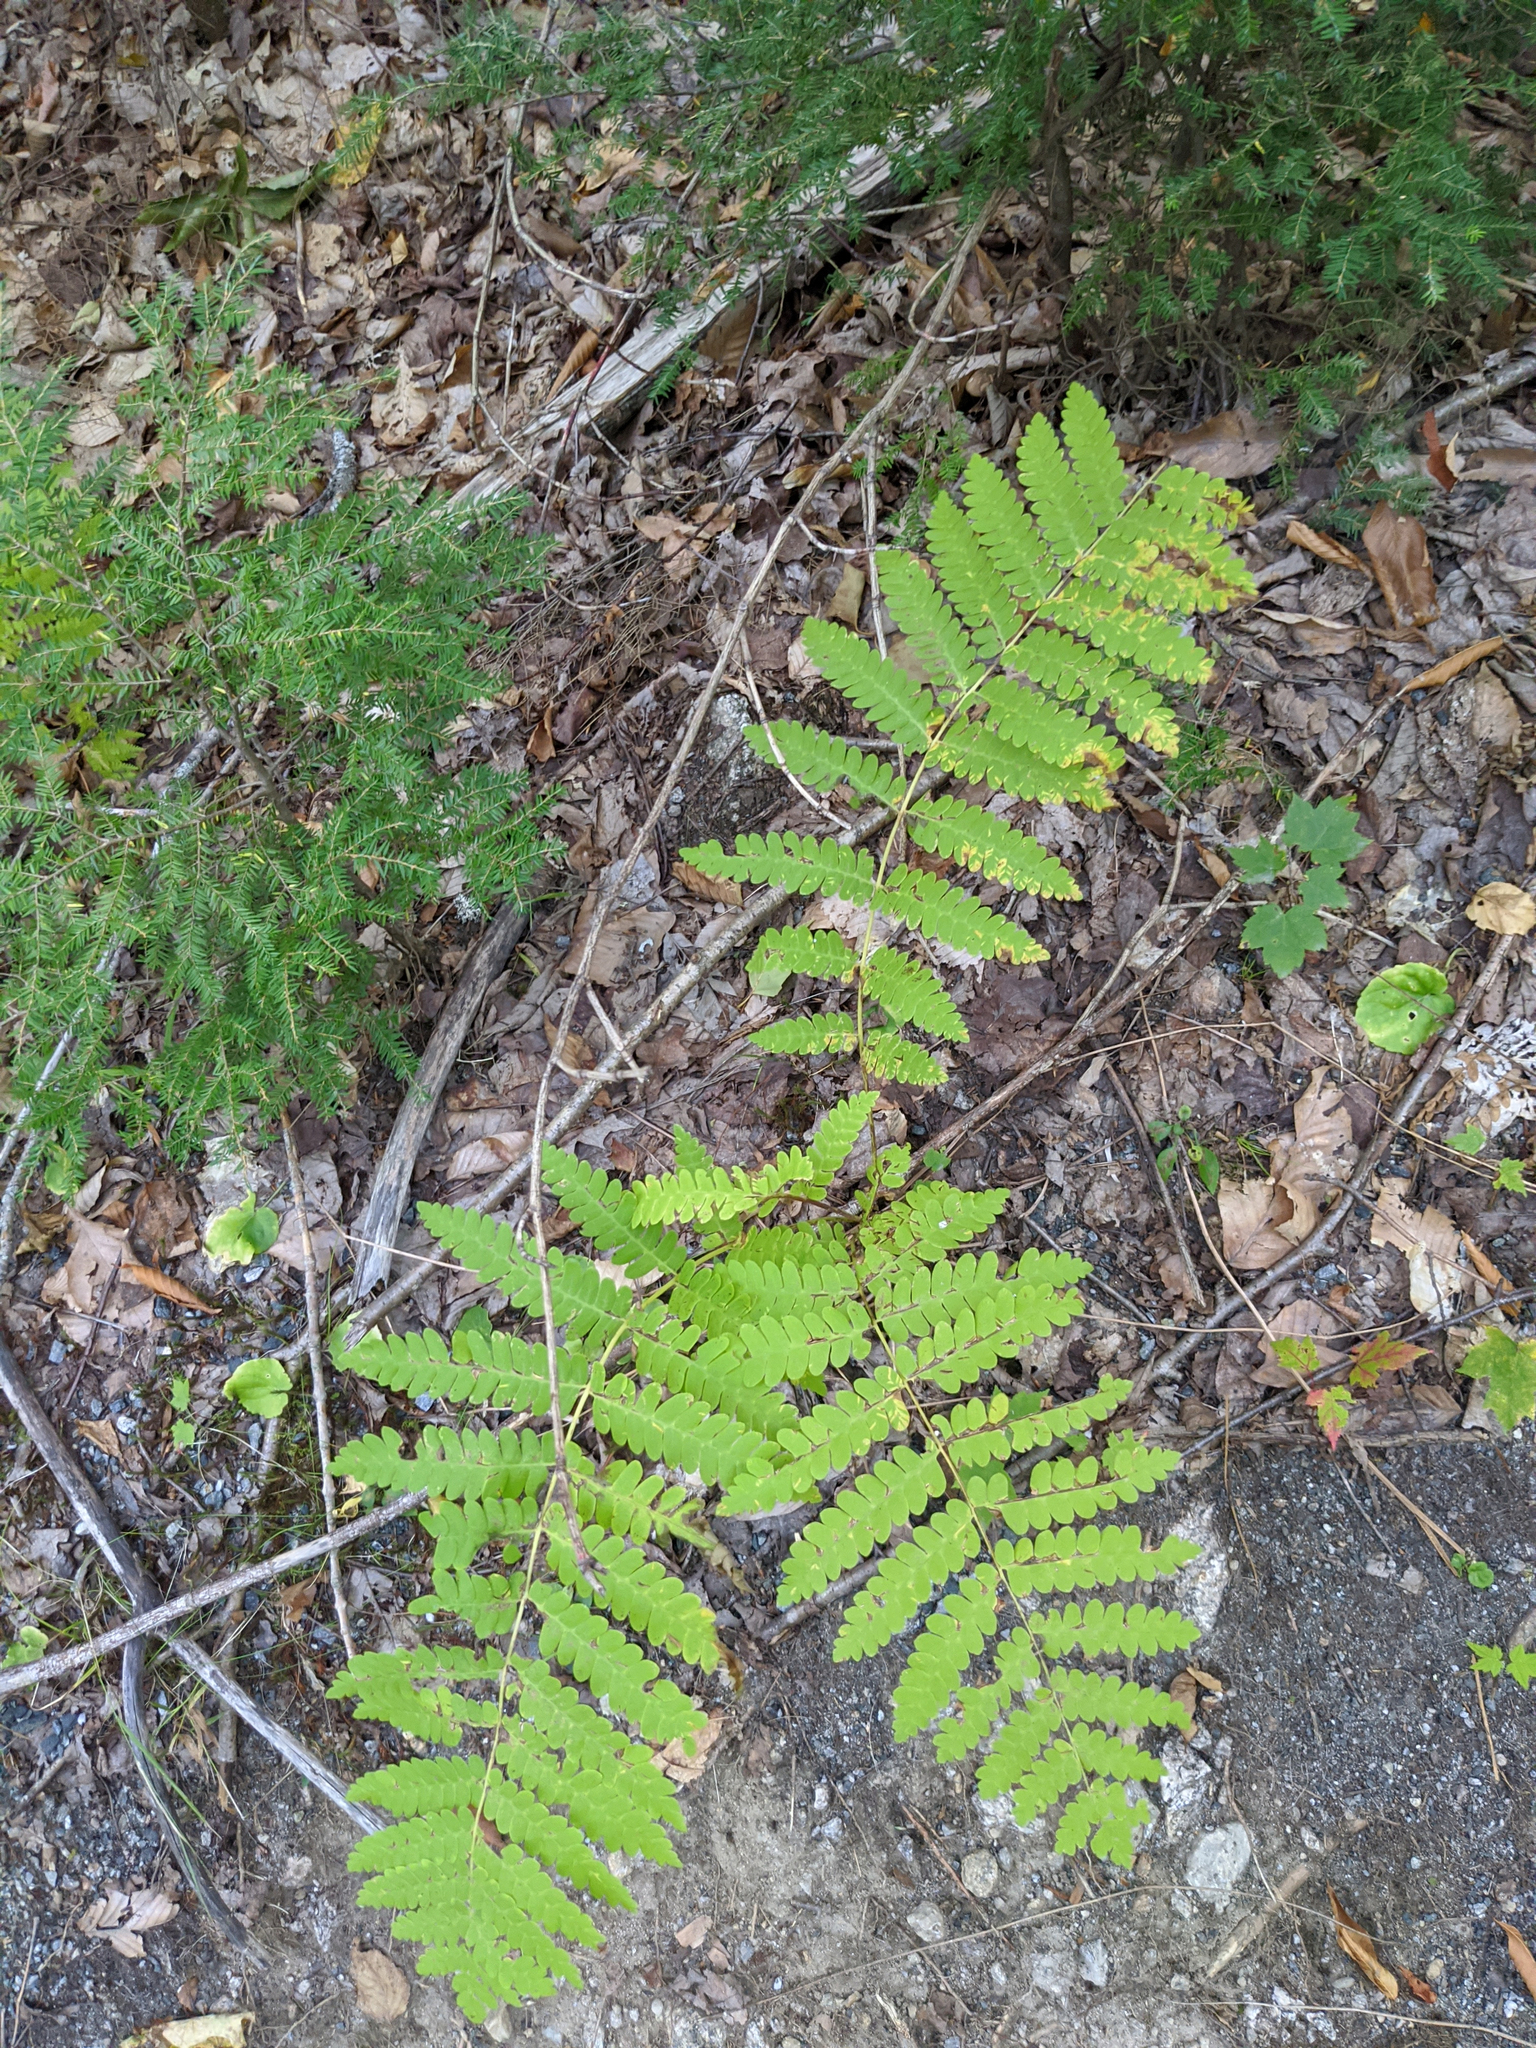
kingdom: Plantae
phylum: Tracheophyta
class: Polypodiopsida
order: Osmundales
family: Osmundaceae
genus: Claytosmunda
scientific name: Claytosmunda claytoniana
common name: Clayton's fern
